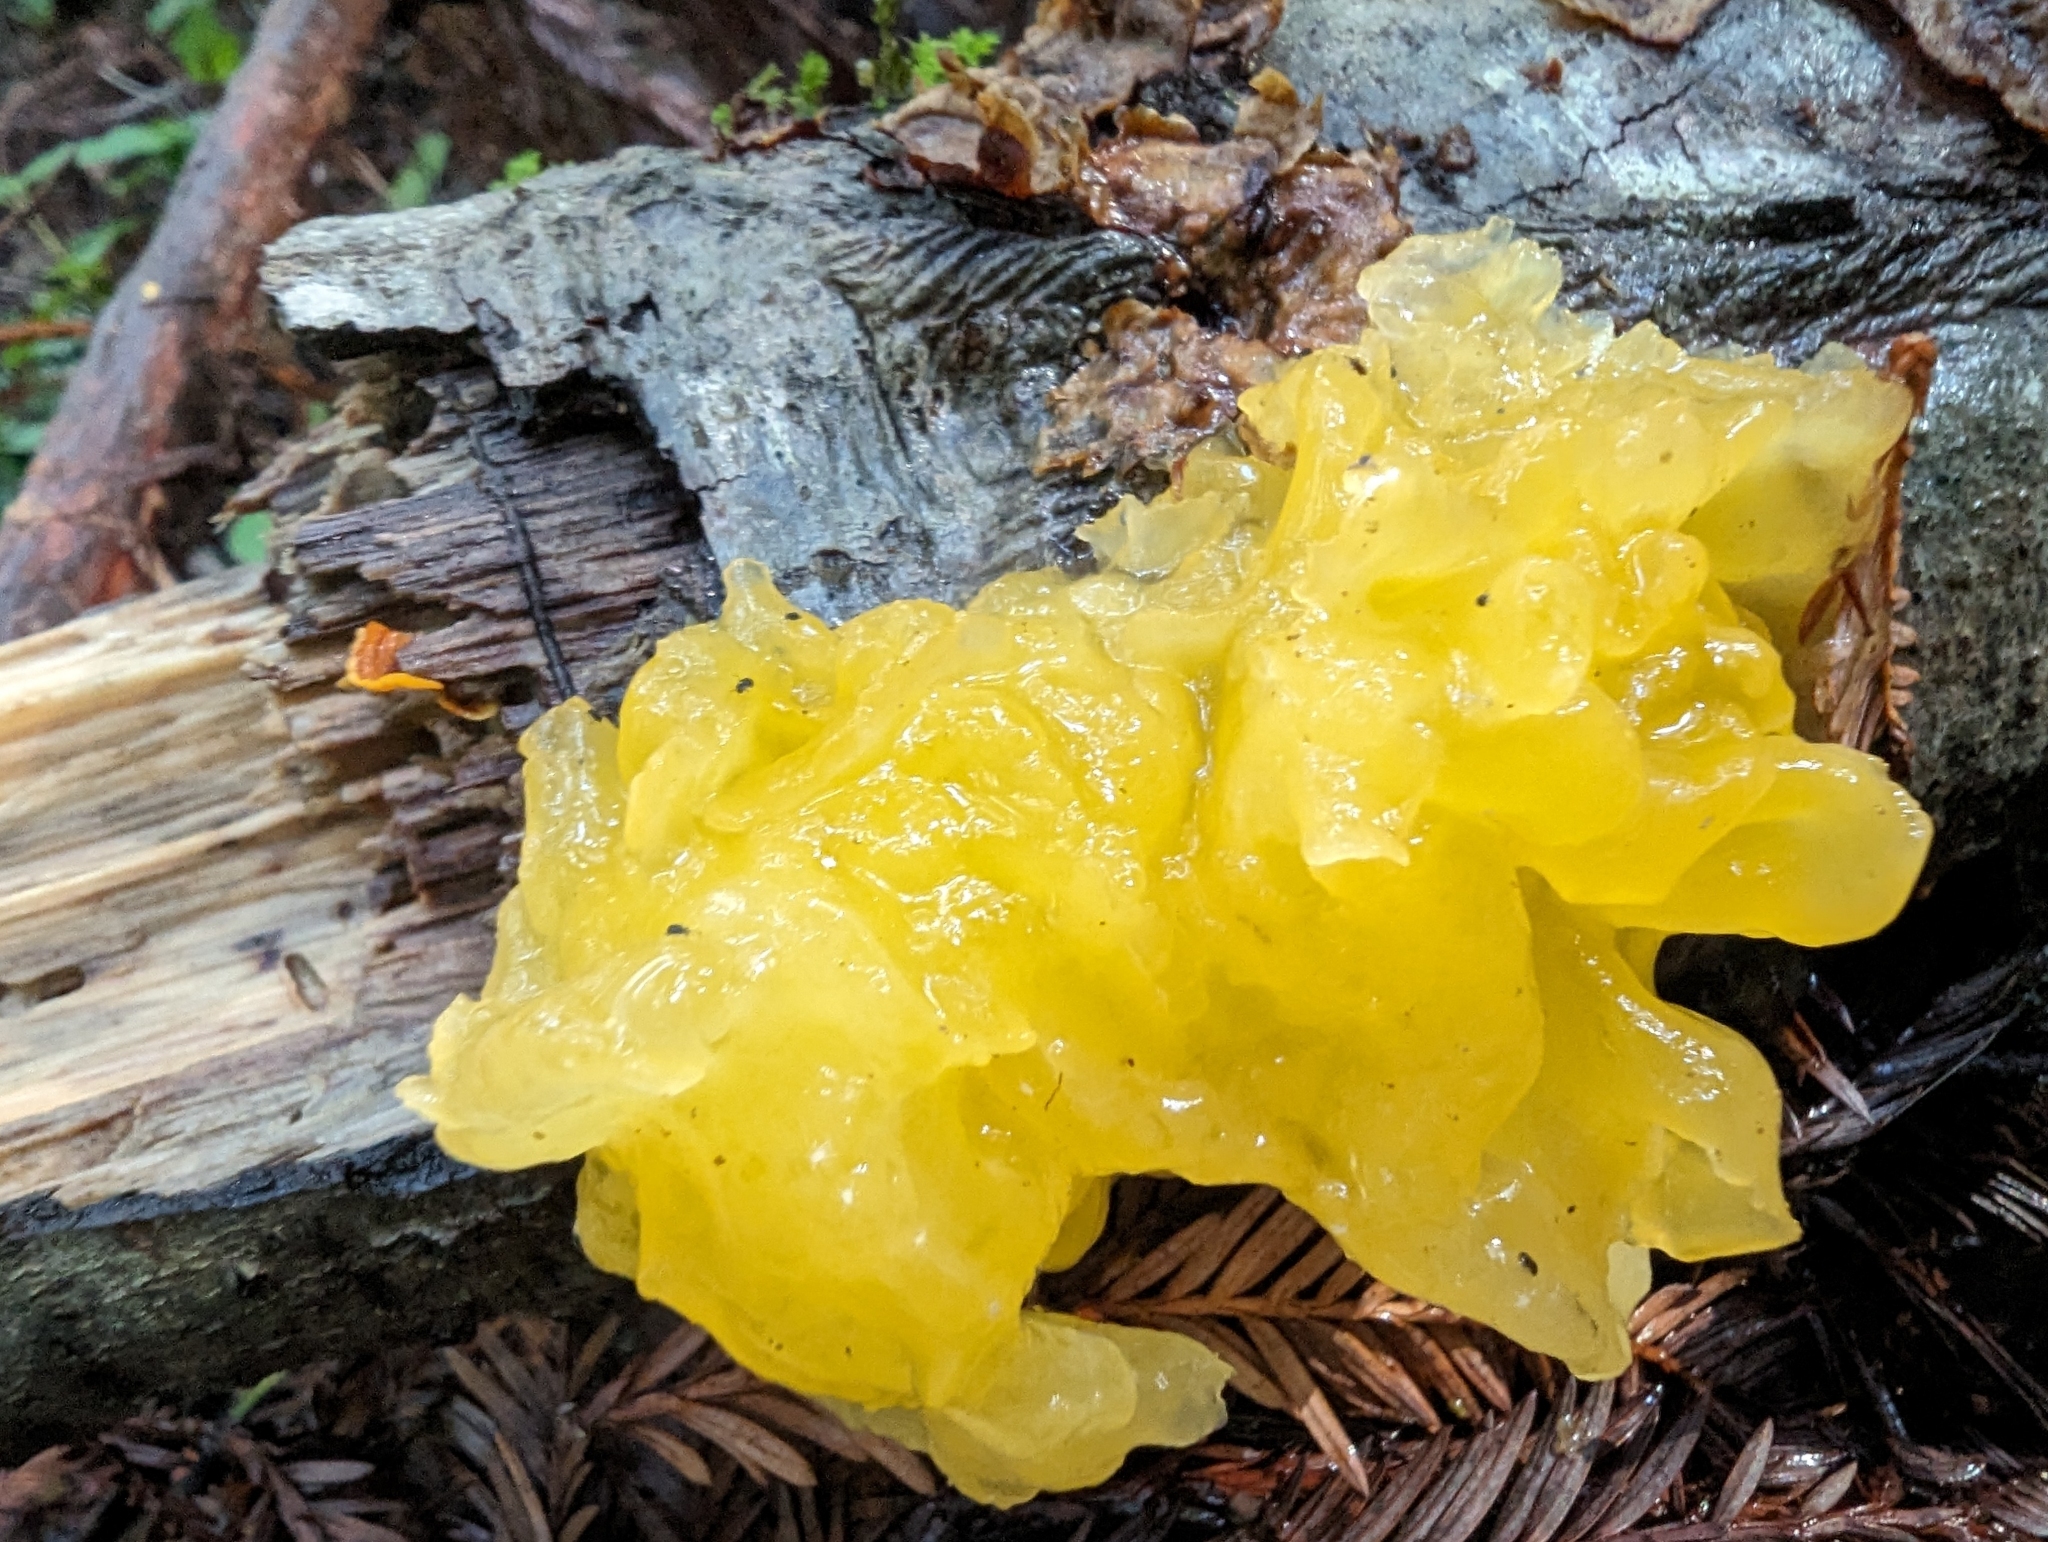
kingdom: Fungi
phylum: Basidiomycota
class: Tremellomycetes
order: Tremellales
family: Naemateliaceae
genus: Naematelia
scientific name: Naematelia aurantia
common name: Golden ear
